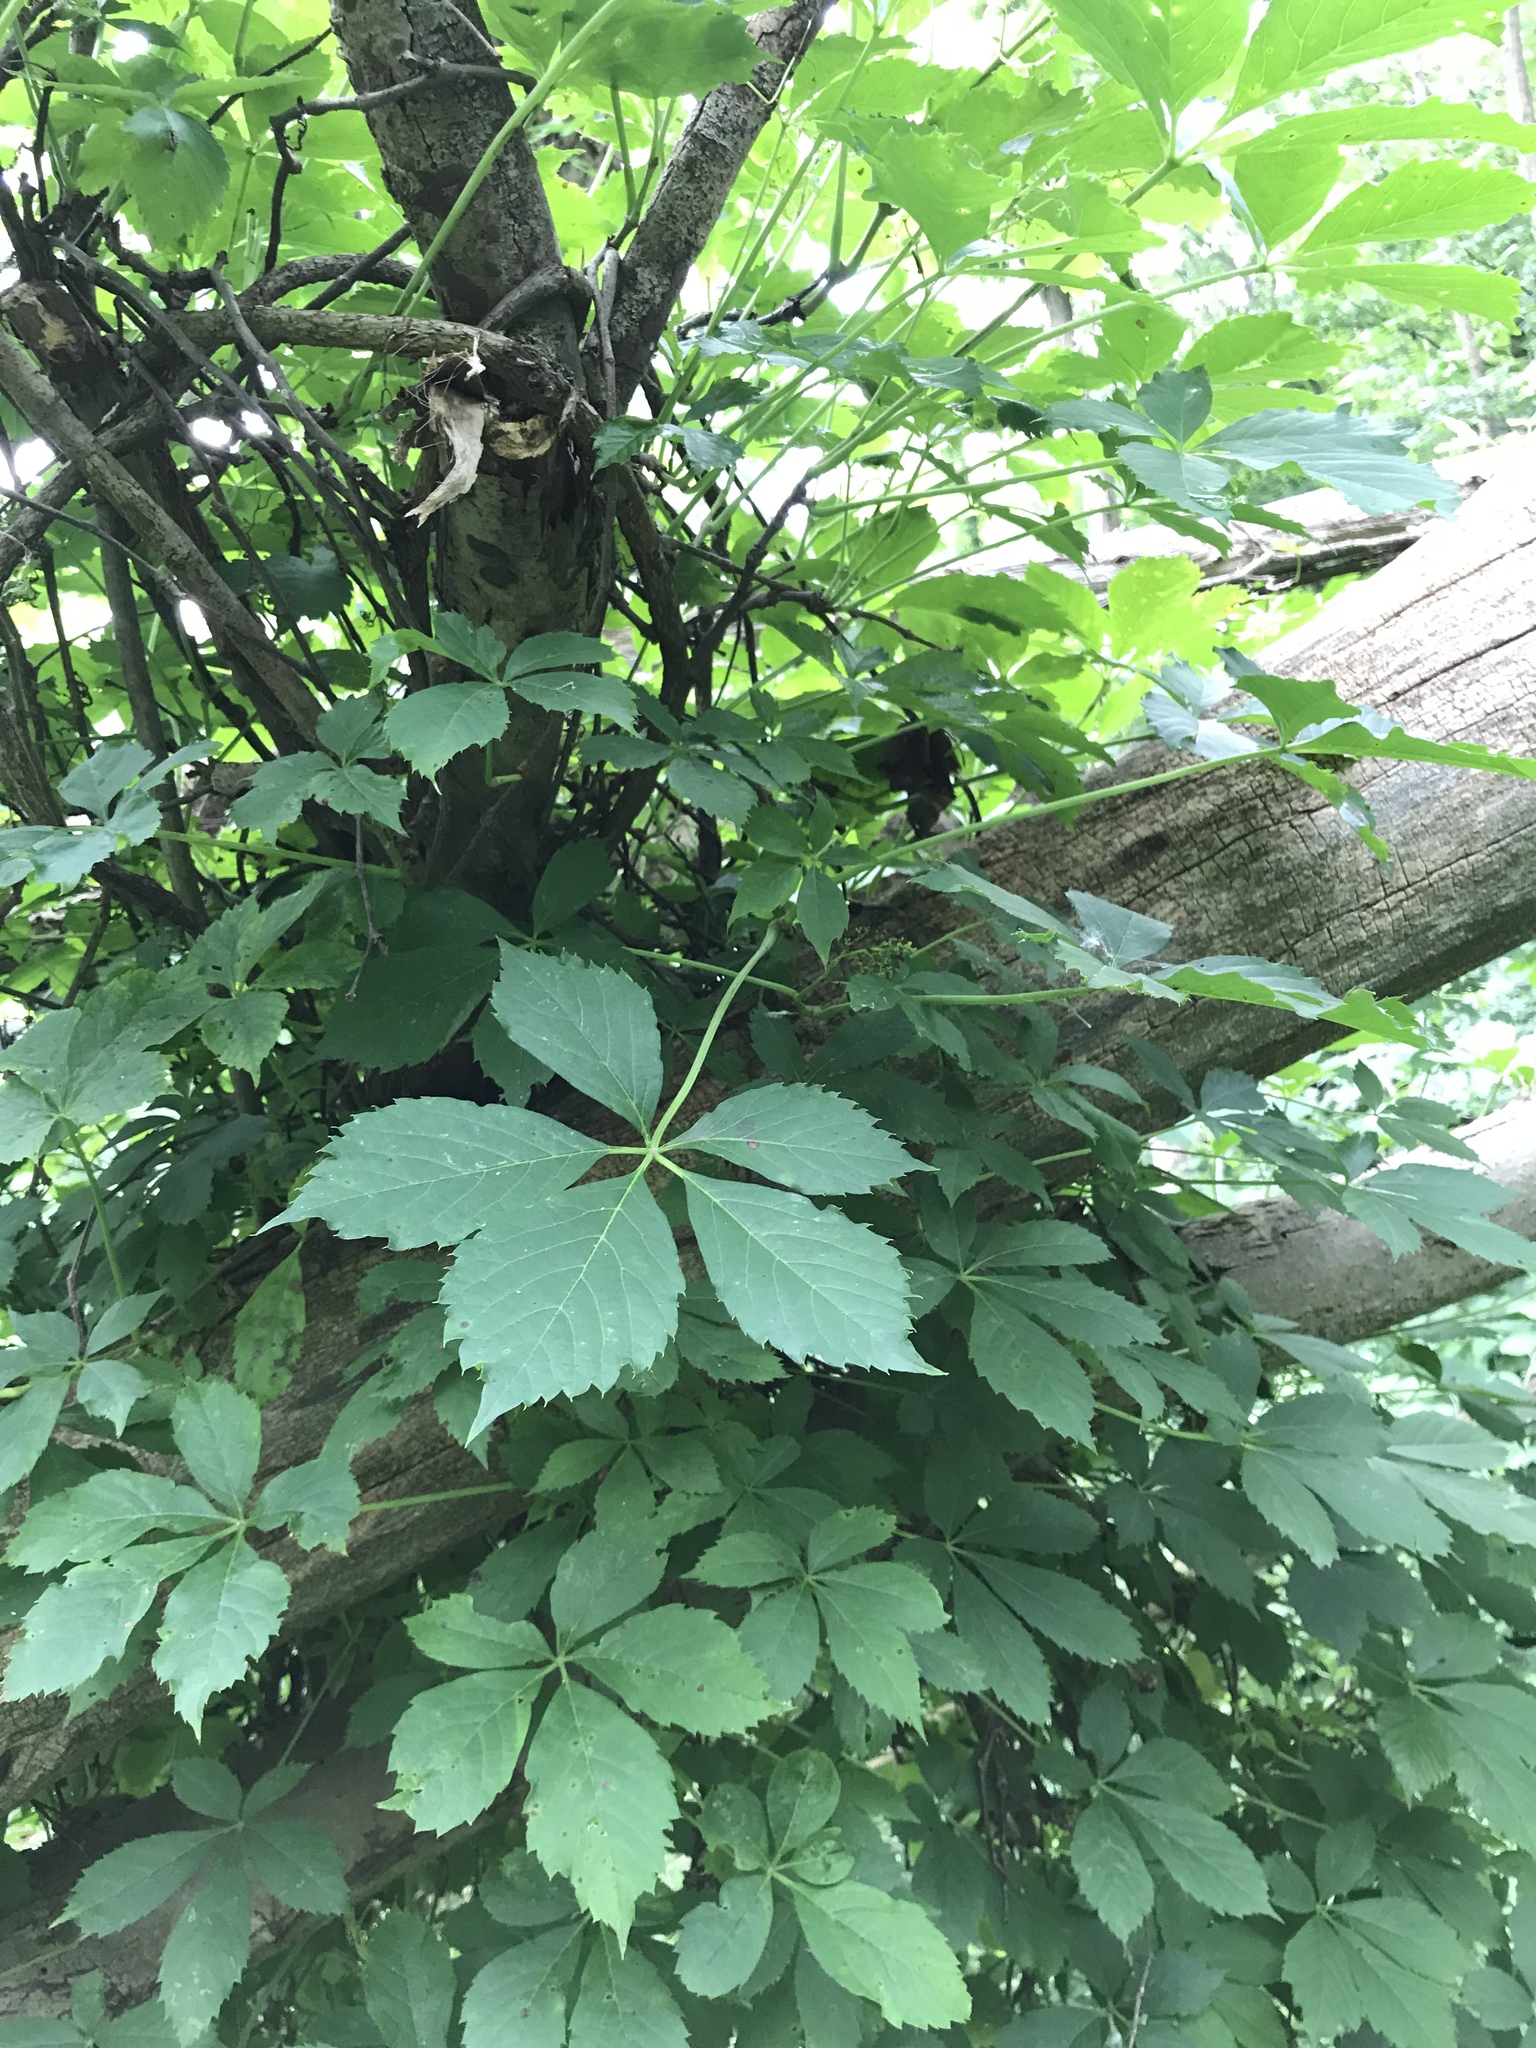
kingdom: Plantae
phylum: Tracheophyta
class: Magnoliopsida
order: Vitales
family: Vitaceae
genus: Parthenocissus
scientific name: Parthenocissus quinquefolia
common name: Virginia-creeper
